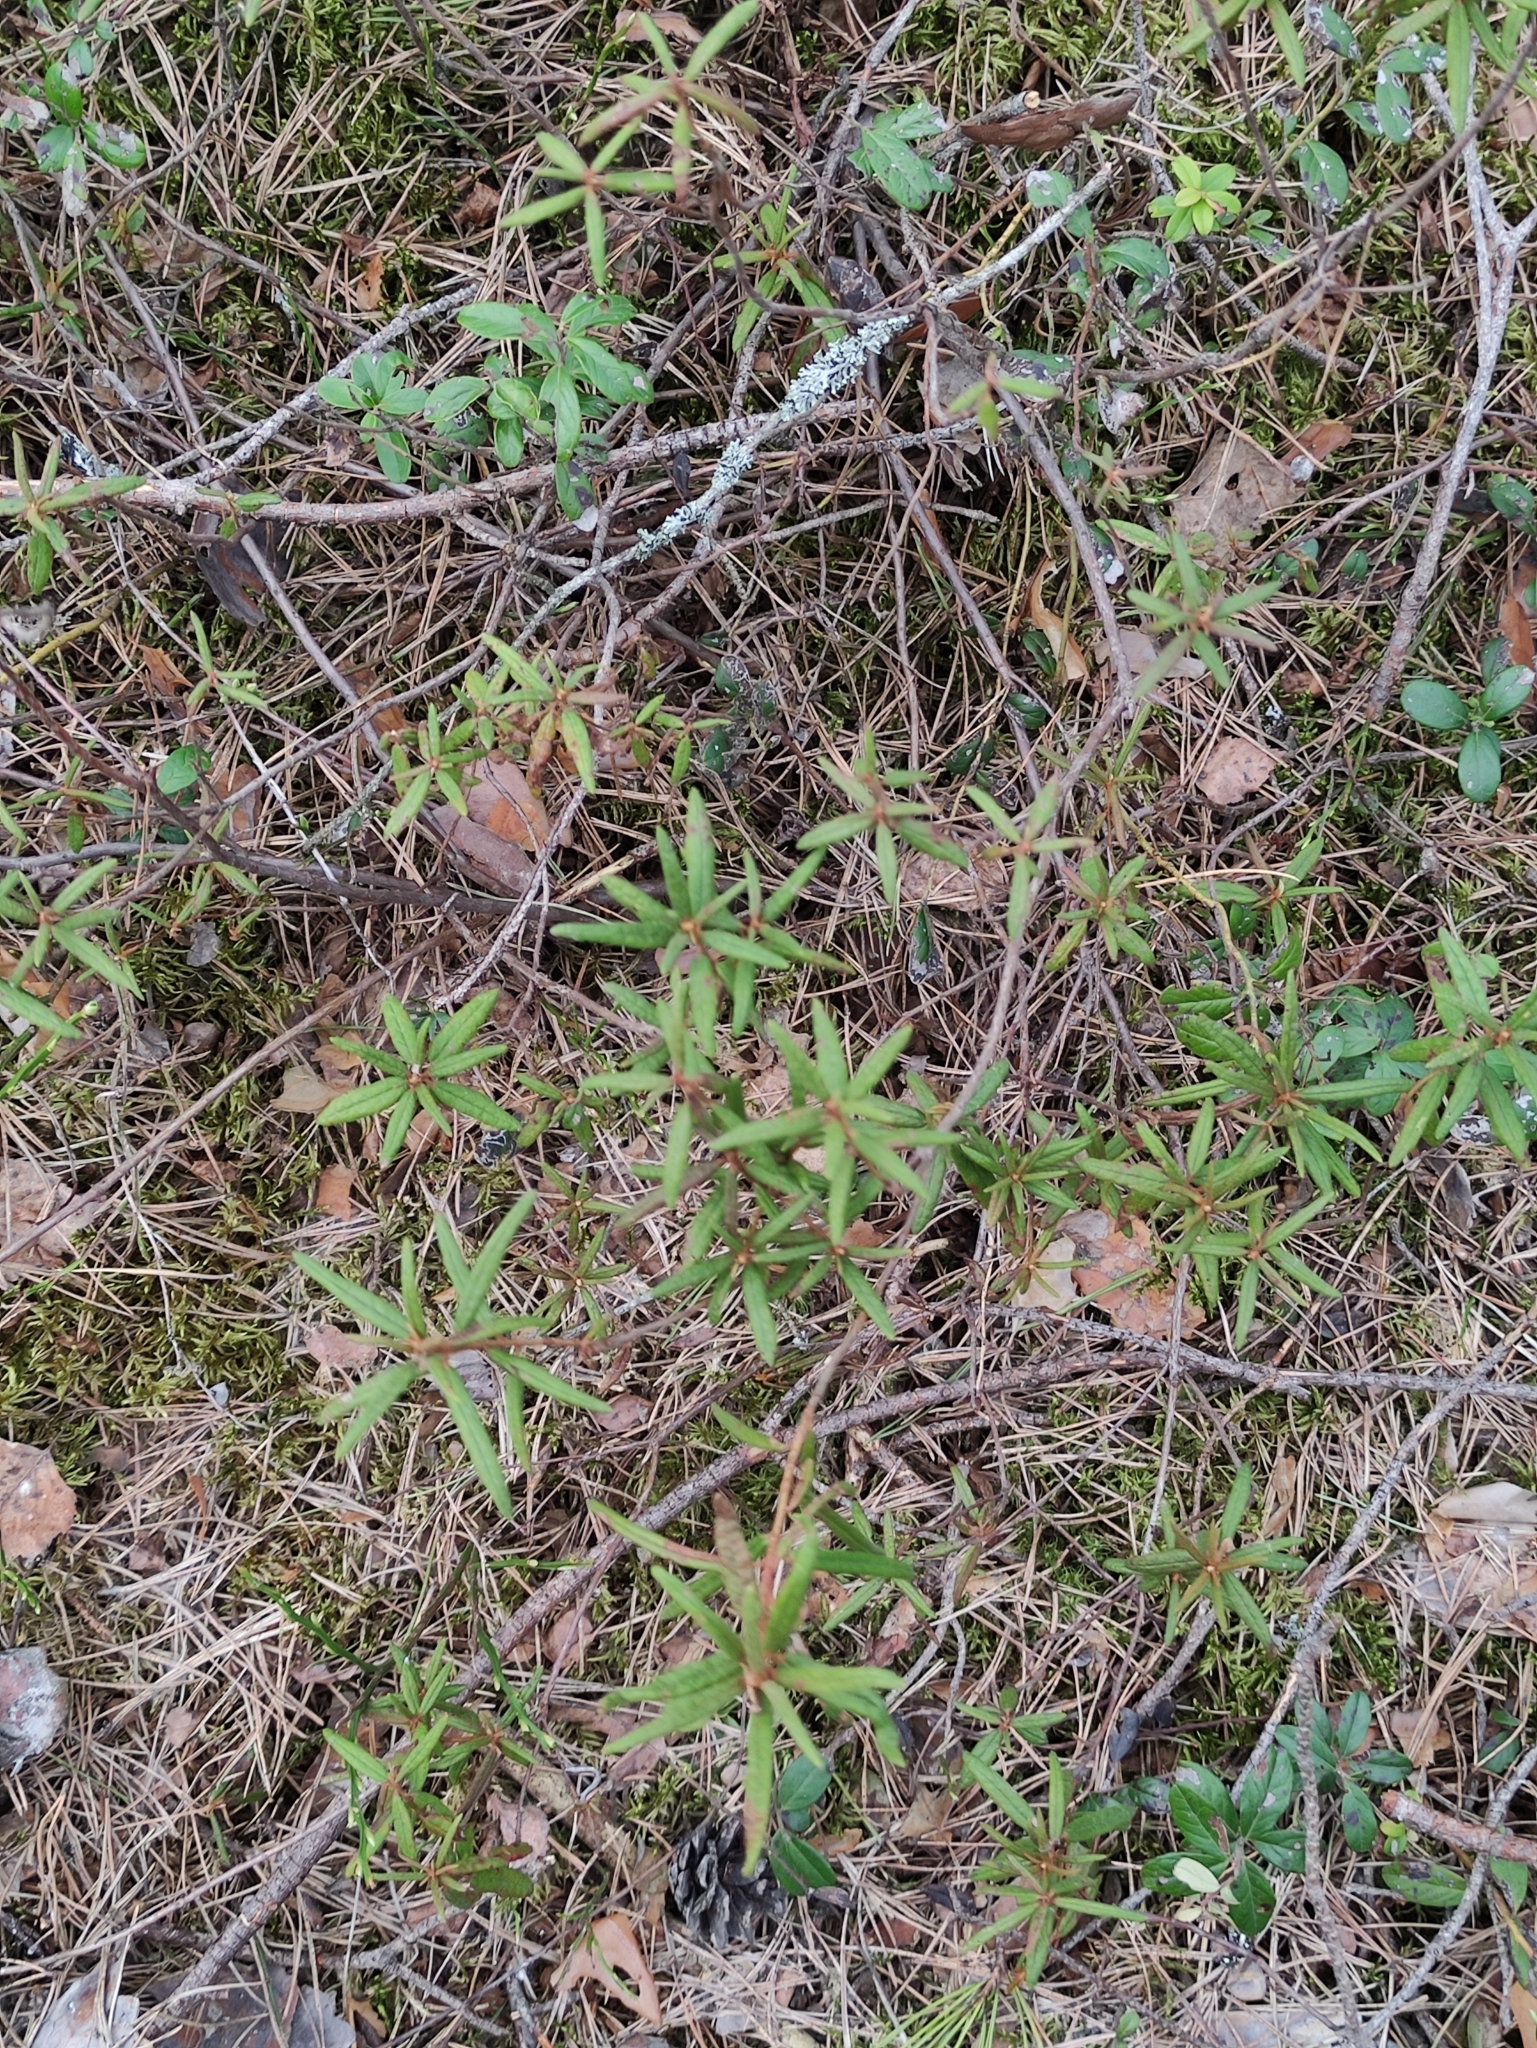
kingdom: Plantae
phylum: Tracheophyta
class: Magnoliopsida
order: Ericales
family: Ericaceae
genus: Rhododendron
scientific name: Rhododendron tomentosum
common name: Marsh labrador tea
